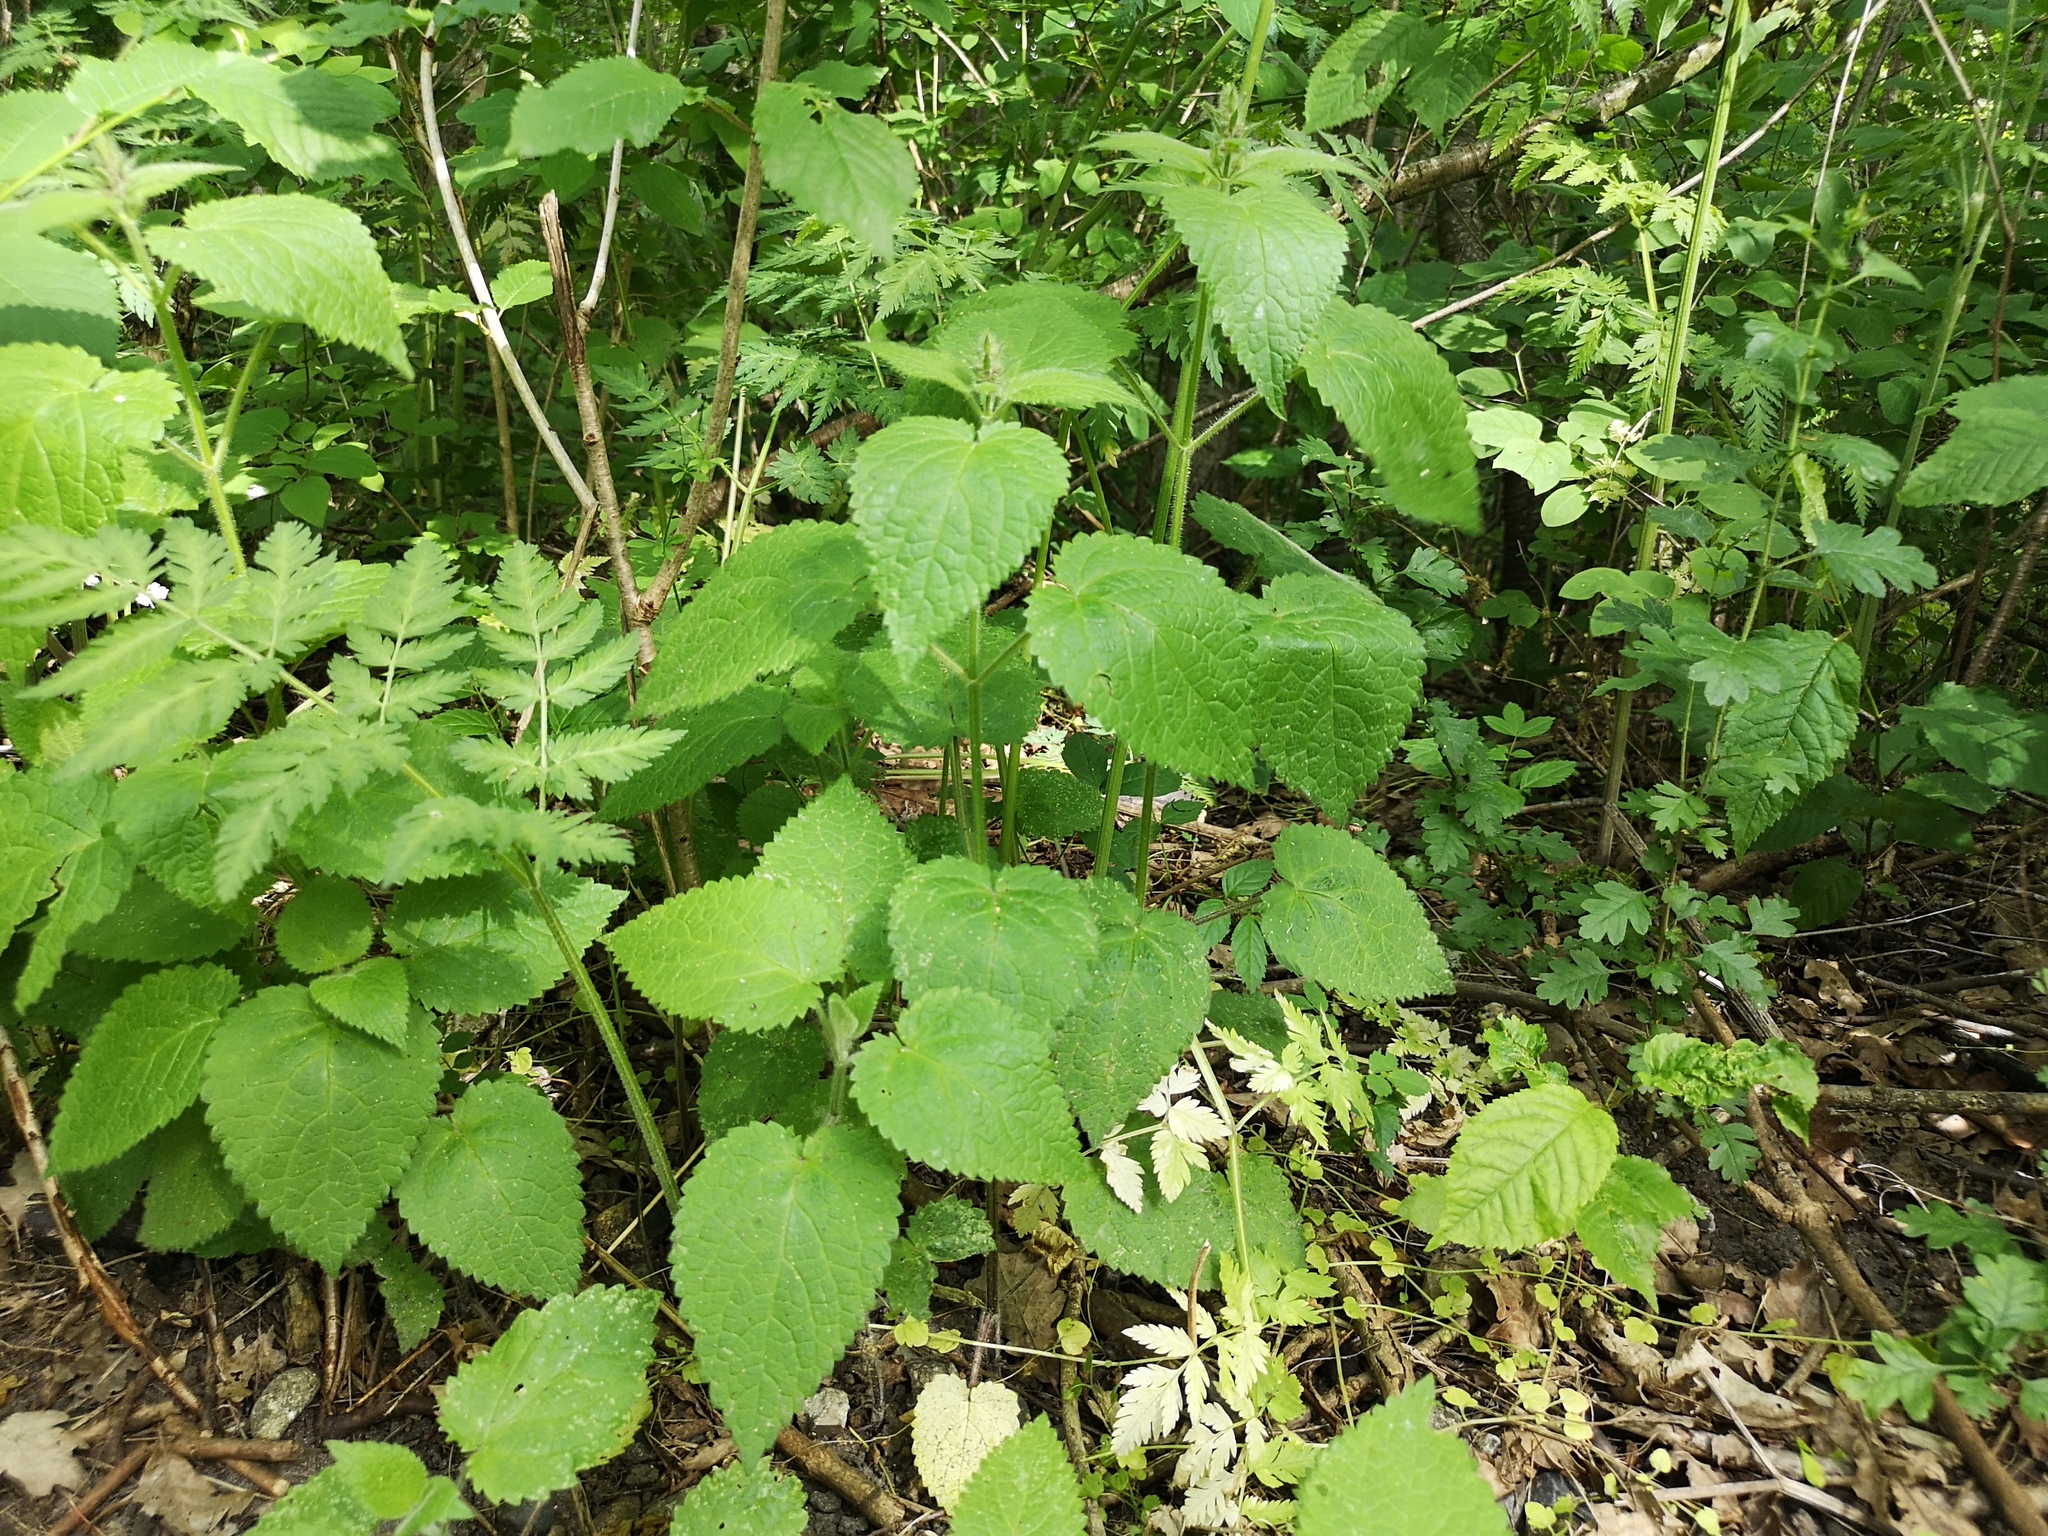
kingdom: Plantae
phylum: Tracheophyta
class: Magnoliopsida
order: Lamiales
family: Lamiaceae
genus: Stachys
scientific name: Stachys sylvatica
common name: Hedge woundwort
